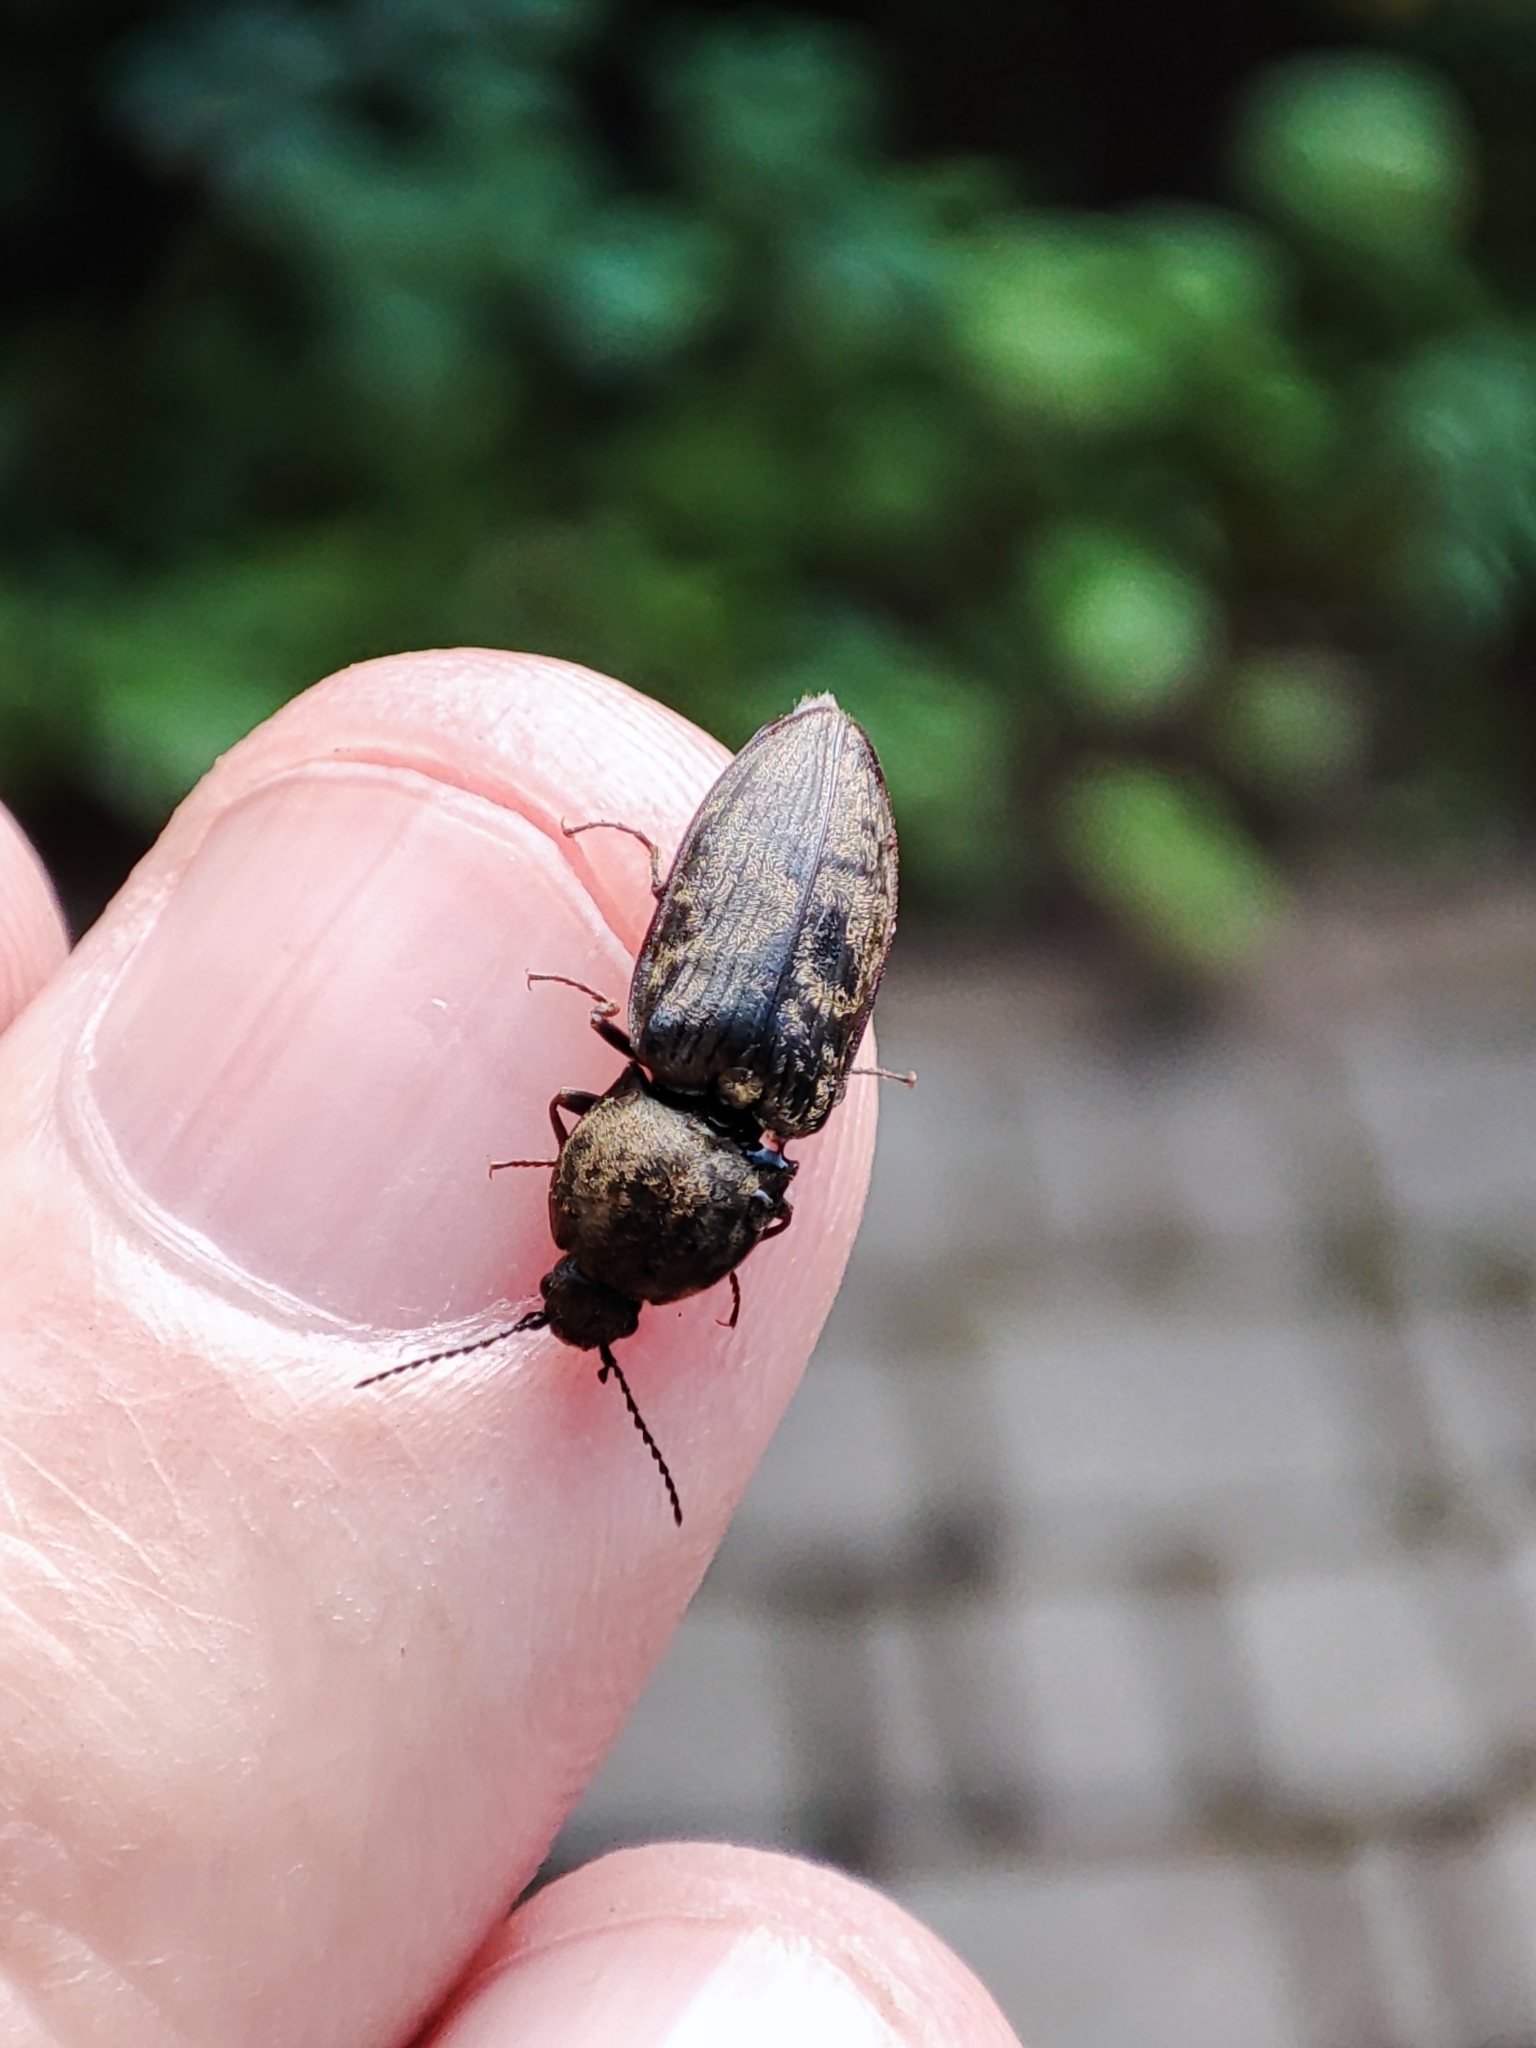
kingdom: Animalia
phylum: Arthropoda
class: Insecta
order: Coleoptera
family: Elateridae
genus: Prosternon
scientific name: Prosternon tessellatum
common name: Chequered click beetle
